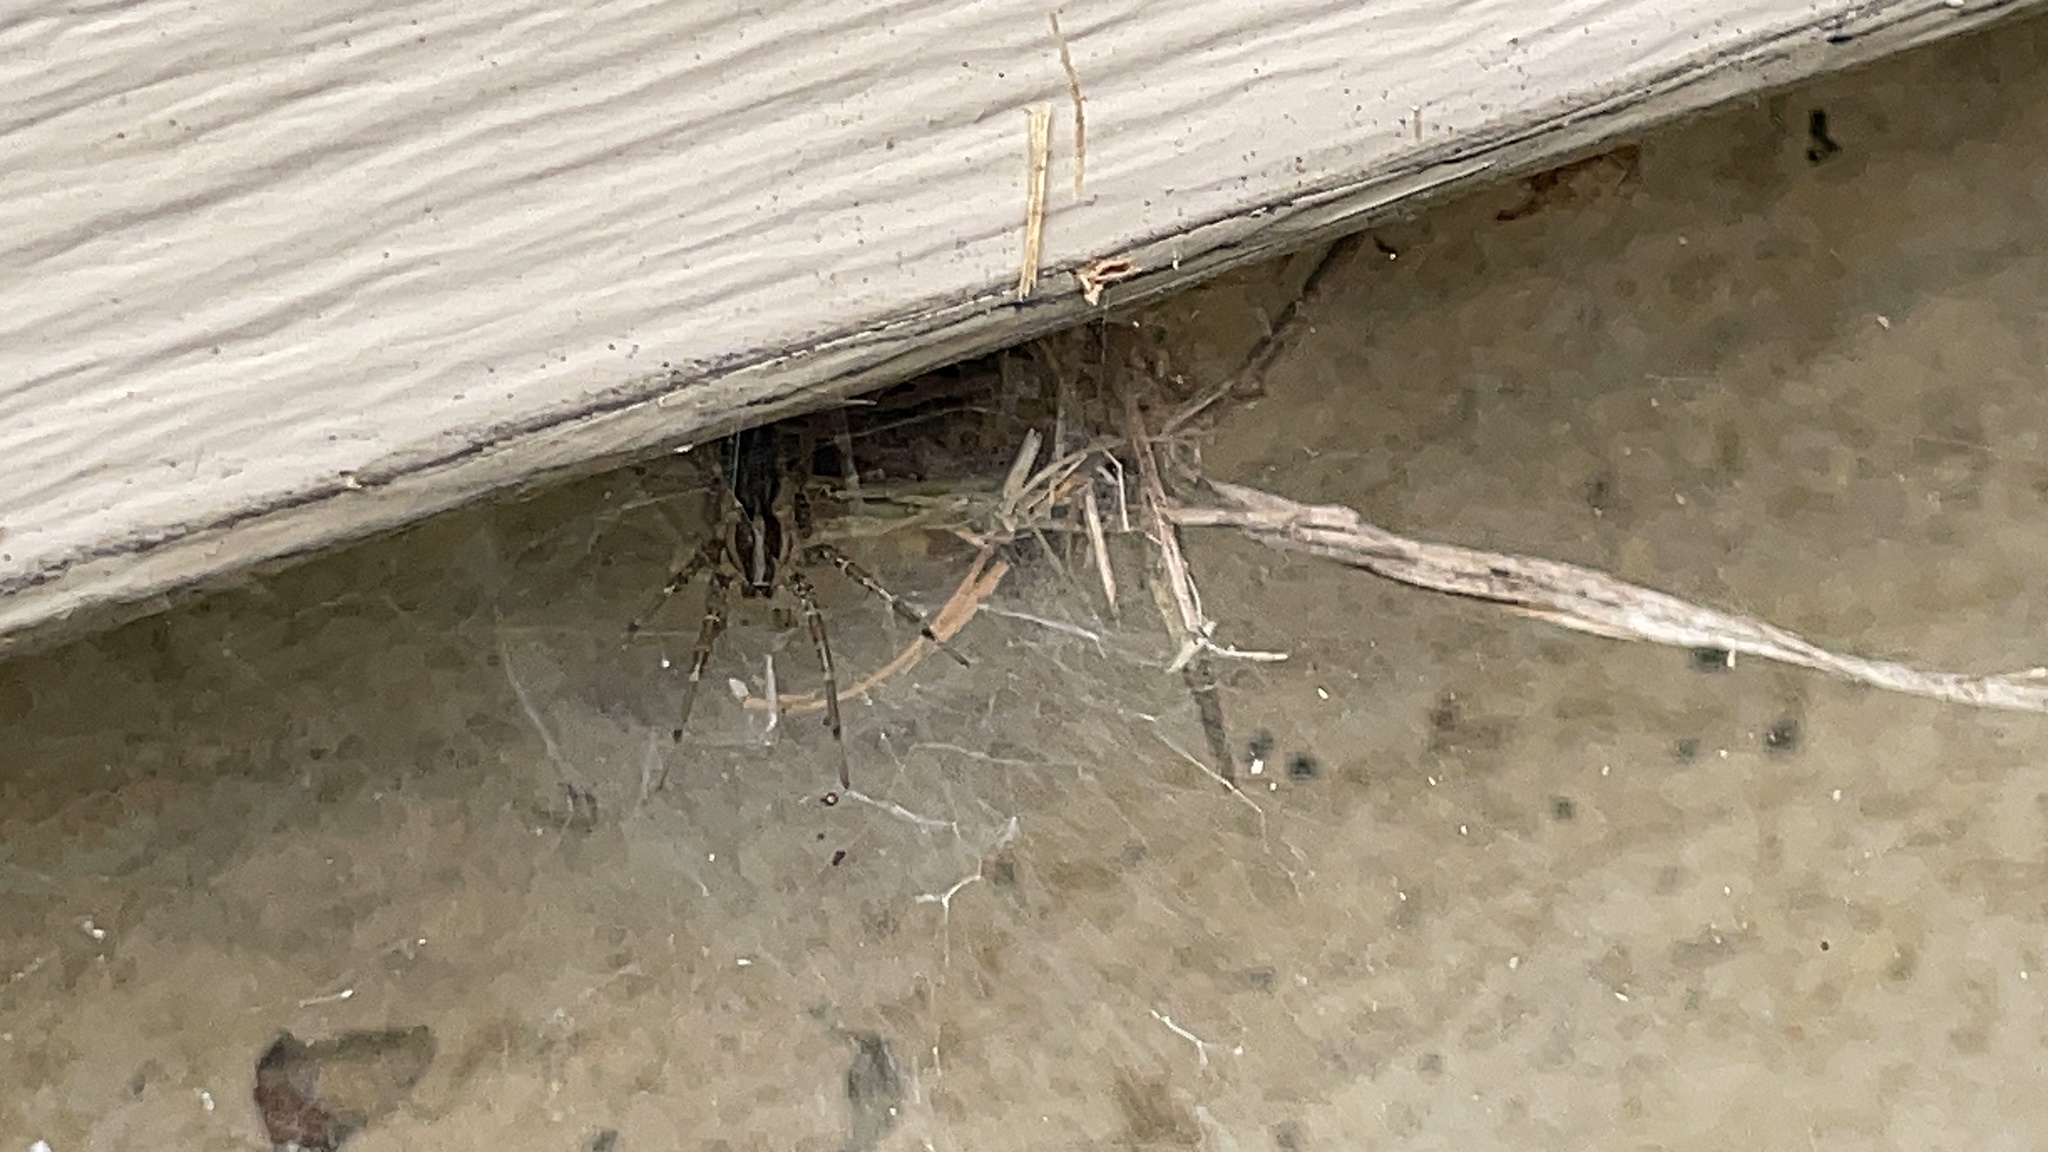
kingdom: Animalia
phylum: Arthropoda
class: Arachnida
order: Araneae
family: Agelenidae
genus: Agelenopsis
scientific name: Agelenopsis
